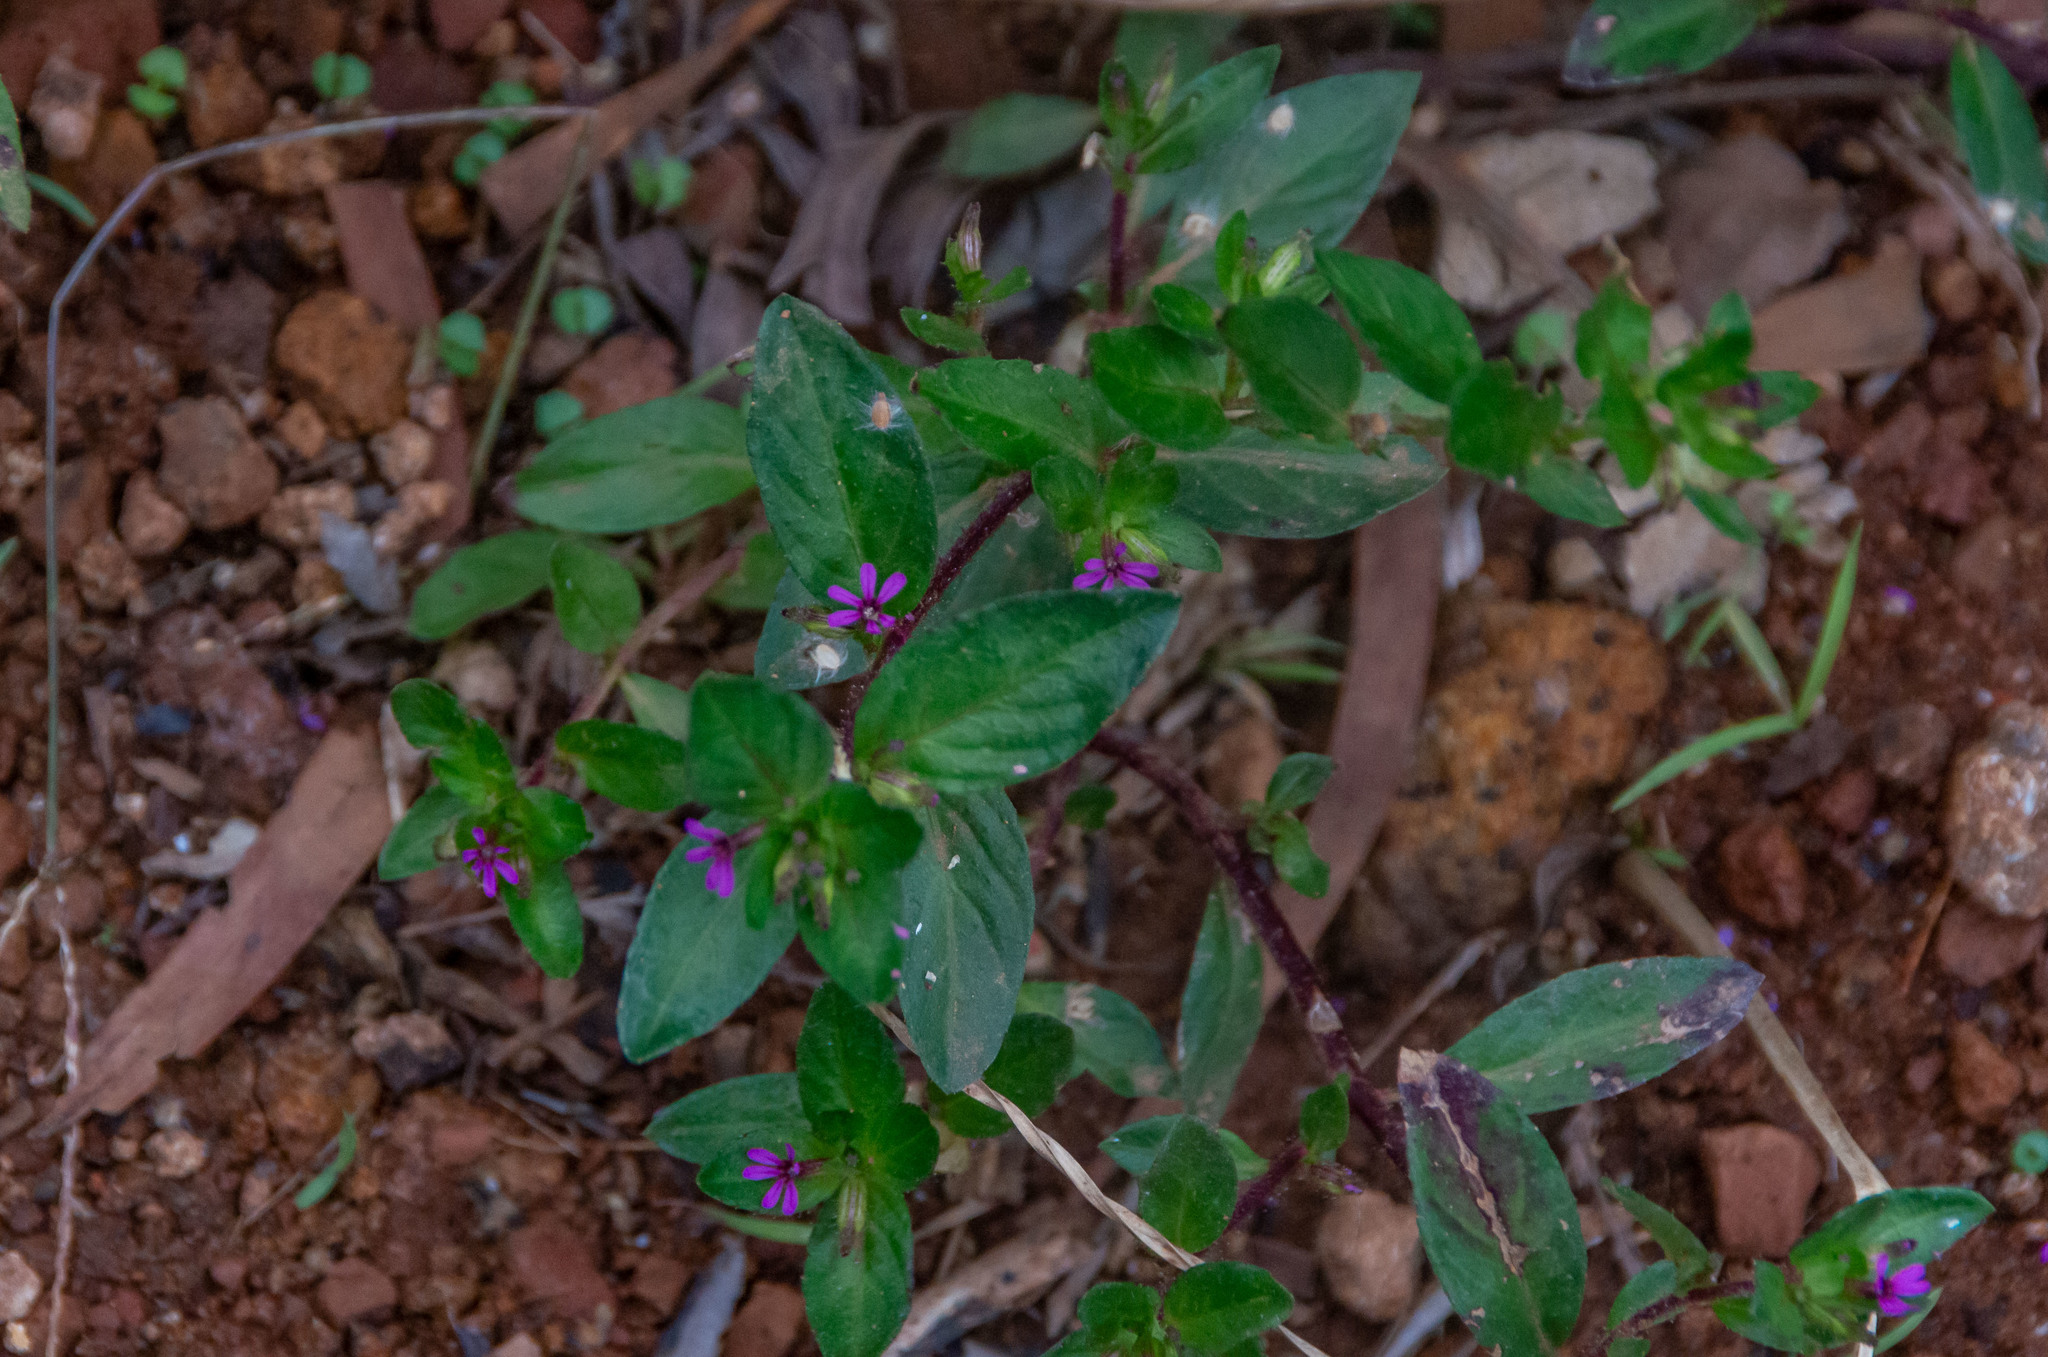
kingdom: Plantae
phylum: Tracheophyta
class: Magnoliopsida
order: Myrtales
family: Lythraceae
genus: Cuphea
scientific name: Cuphea carthagenensis
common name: Colombian waxweed
